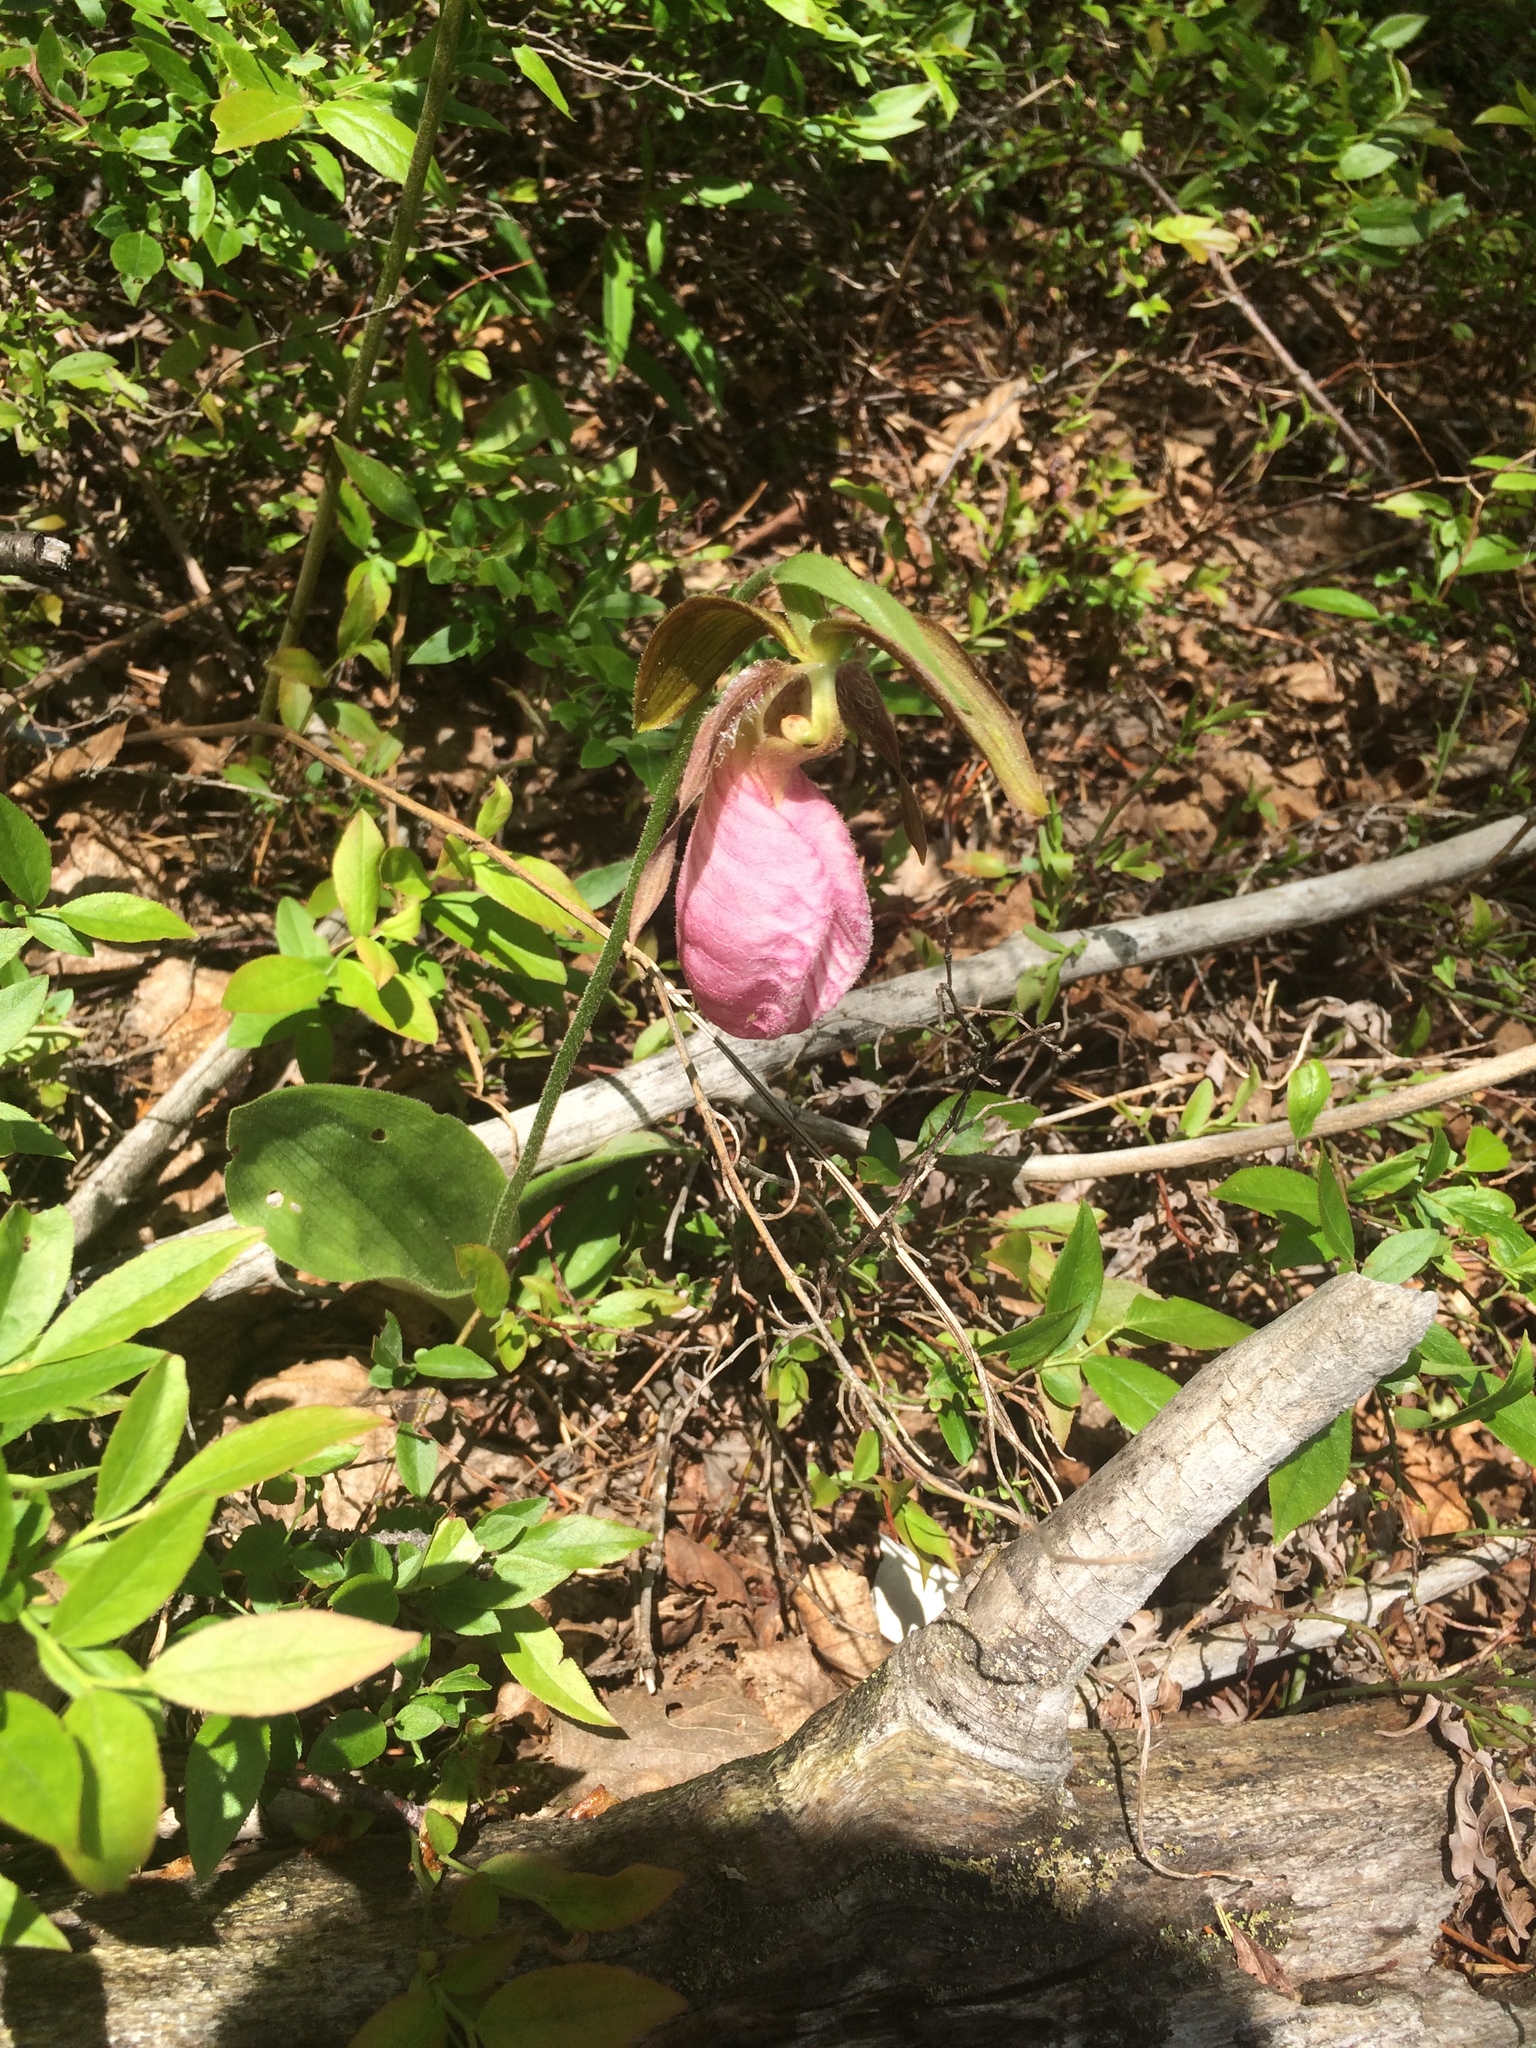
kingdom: Plantae
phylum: Tracheophyta
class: Liliopsida
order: Asparagales
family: Orchidaceae
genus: Cypripedium
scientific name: Cypripedium acaule
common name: Pink lady's-slipper
